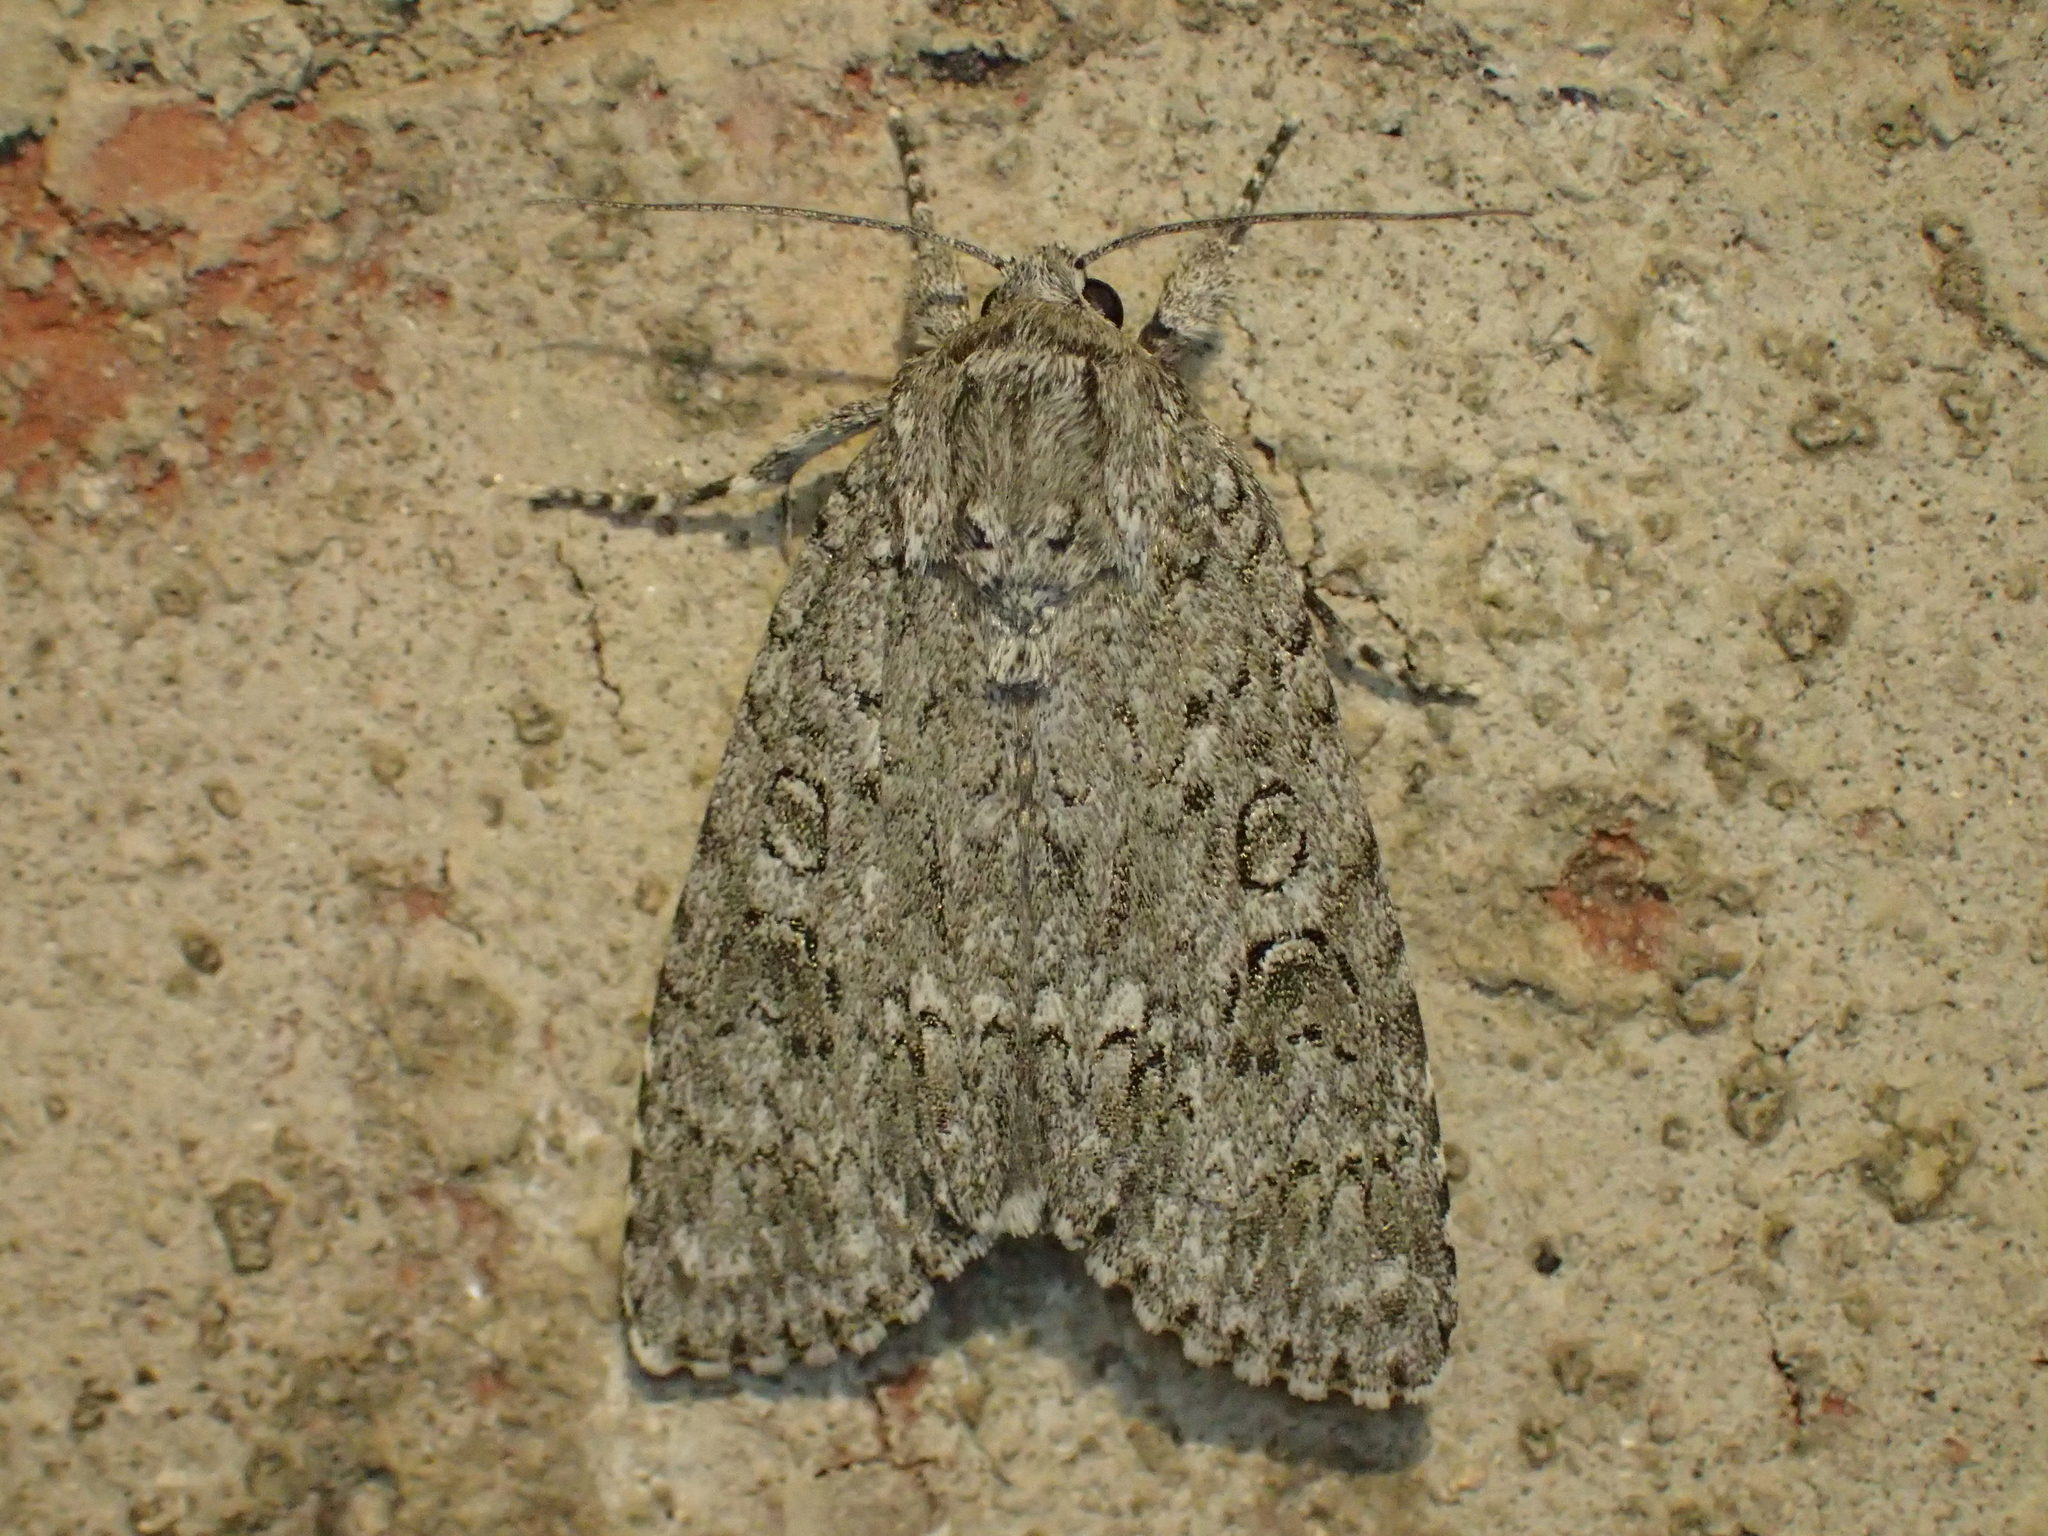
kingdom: Animalia
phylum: Arthropoda
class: Insecta
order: Lepidoptera
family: Noctuidae
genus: Acronicta
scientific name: Acronicta impleta
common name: Powdered dagger
